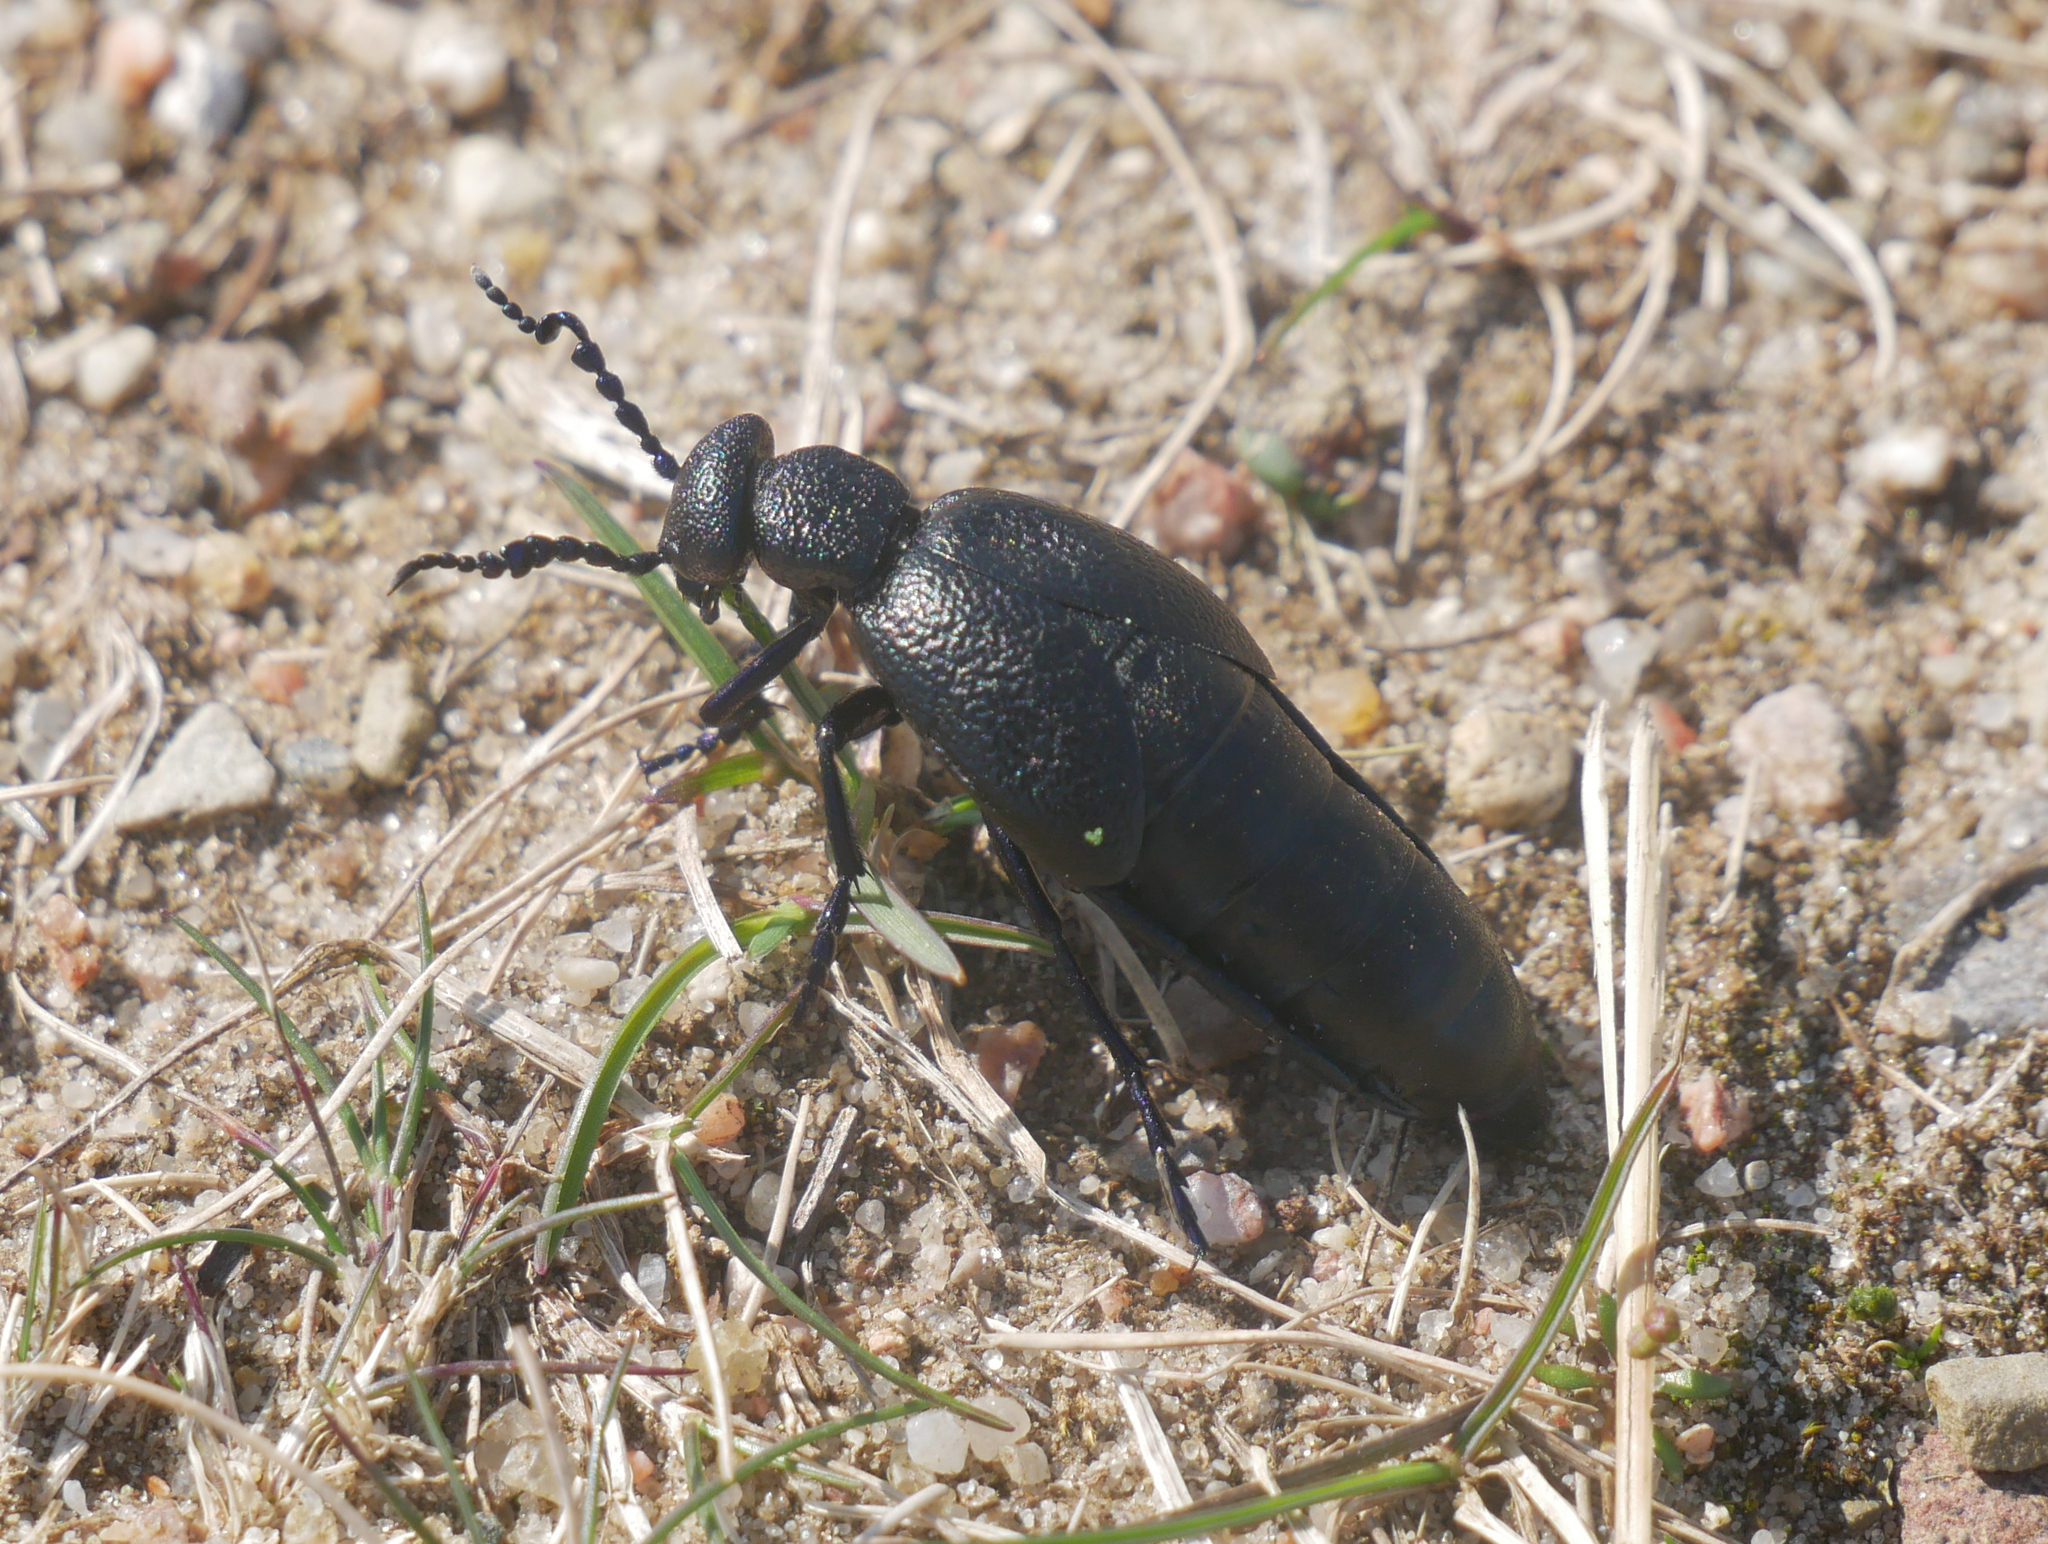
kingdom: Animalia
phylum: Arthropoda
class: Insecta
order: Coleoptera
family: Meloidae
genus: Meloe
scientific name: Meloe proscarabaeus
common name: Black oil-beetle
